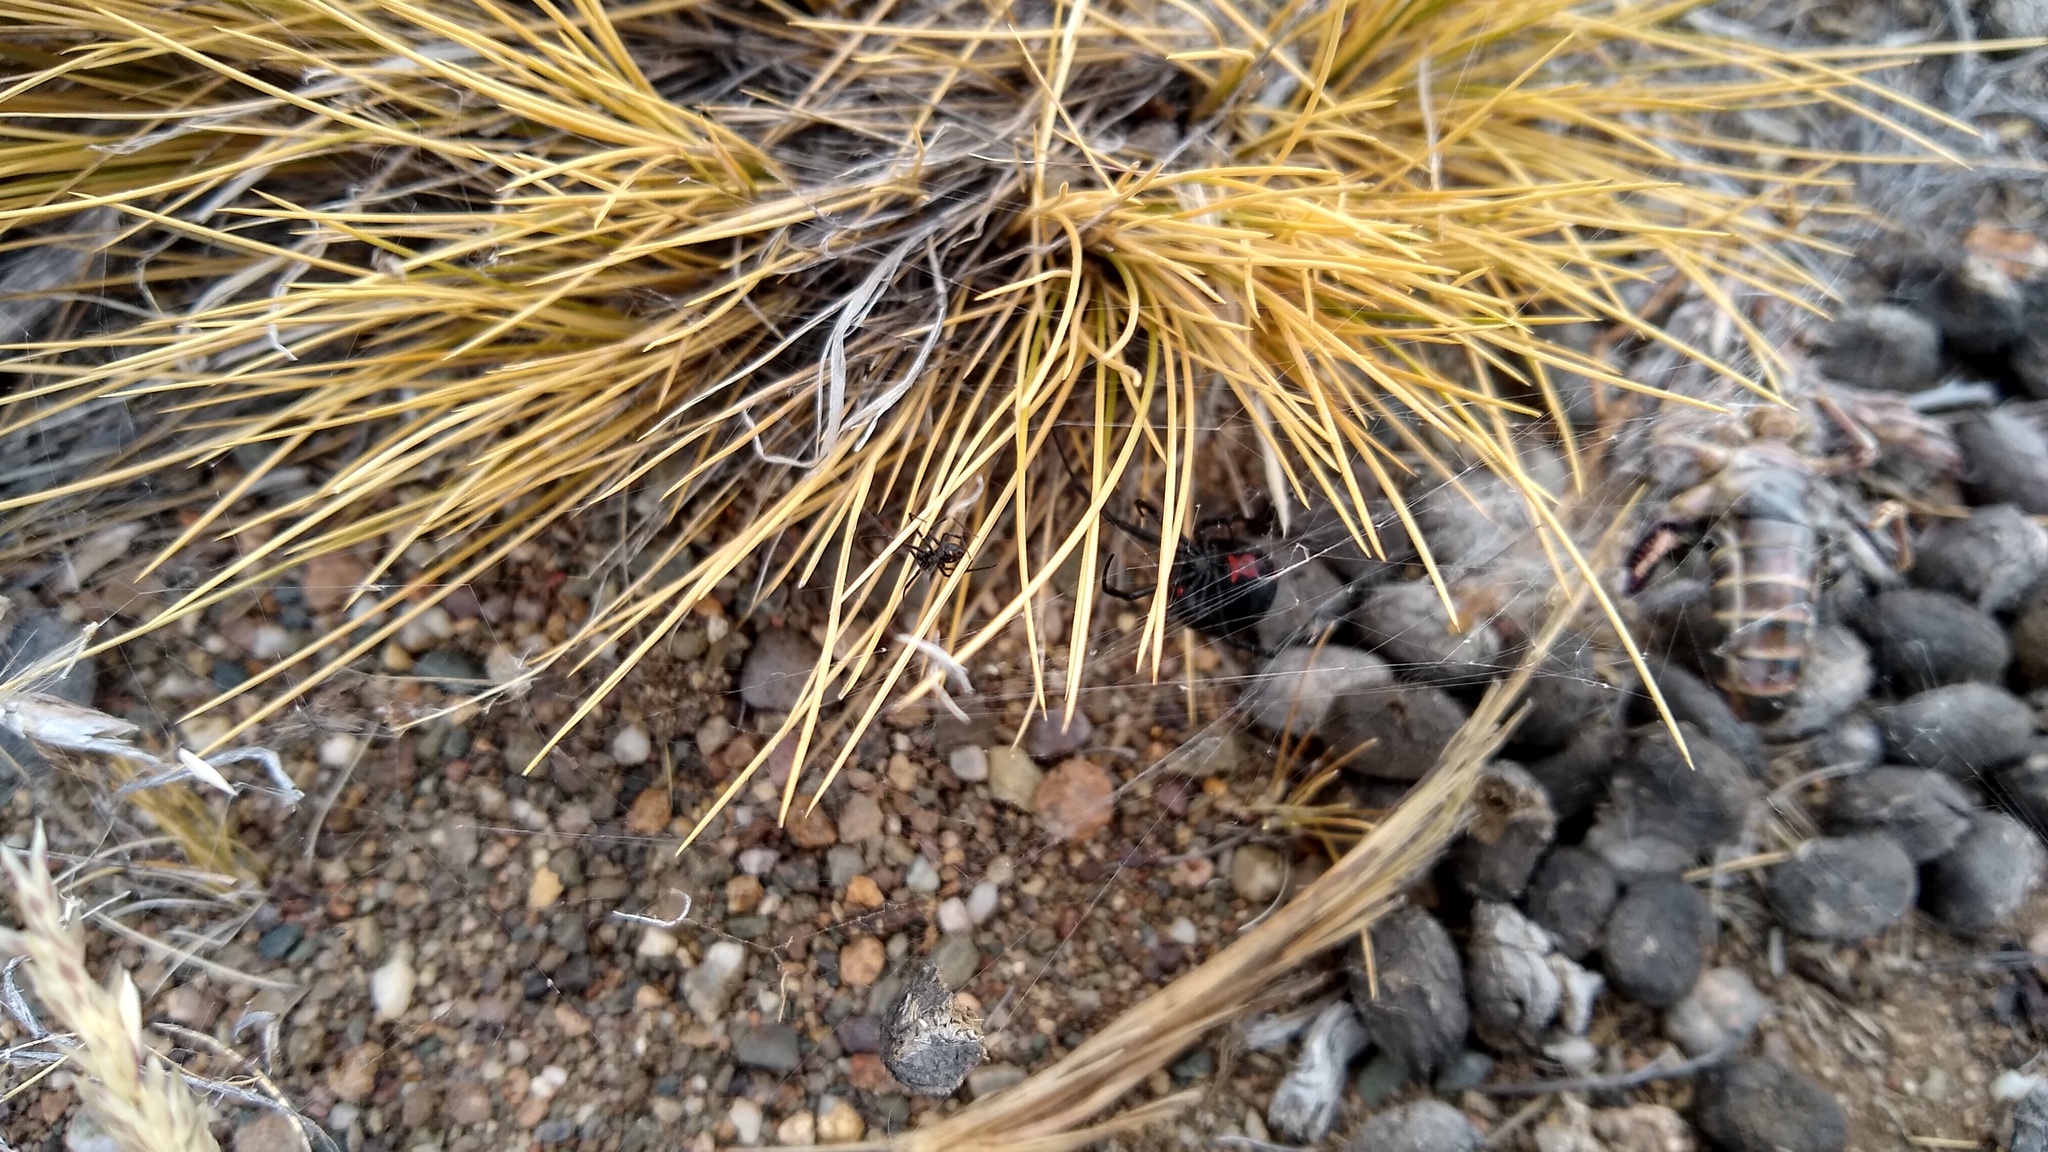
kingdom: Animalia
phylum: Arthropoda
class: Arachnida
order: Araneae
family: Theridiidae
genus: Latrodectus
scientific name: Latrodectus mirabilis
